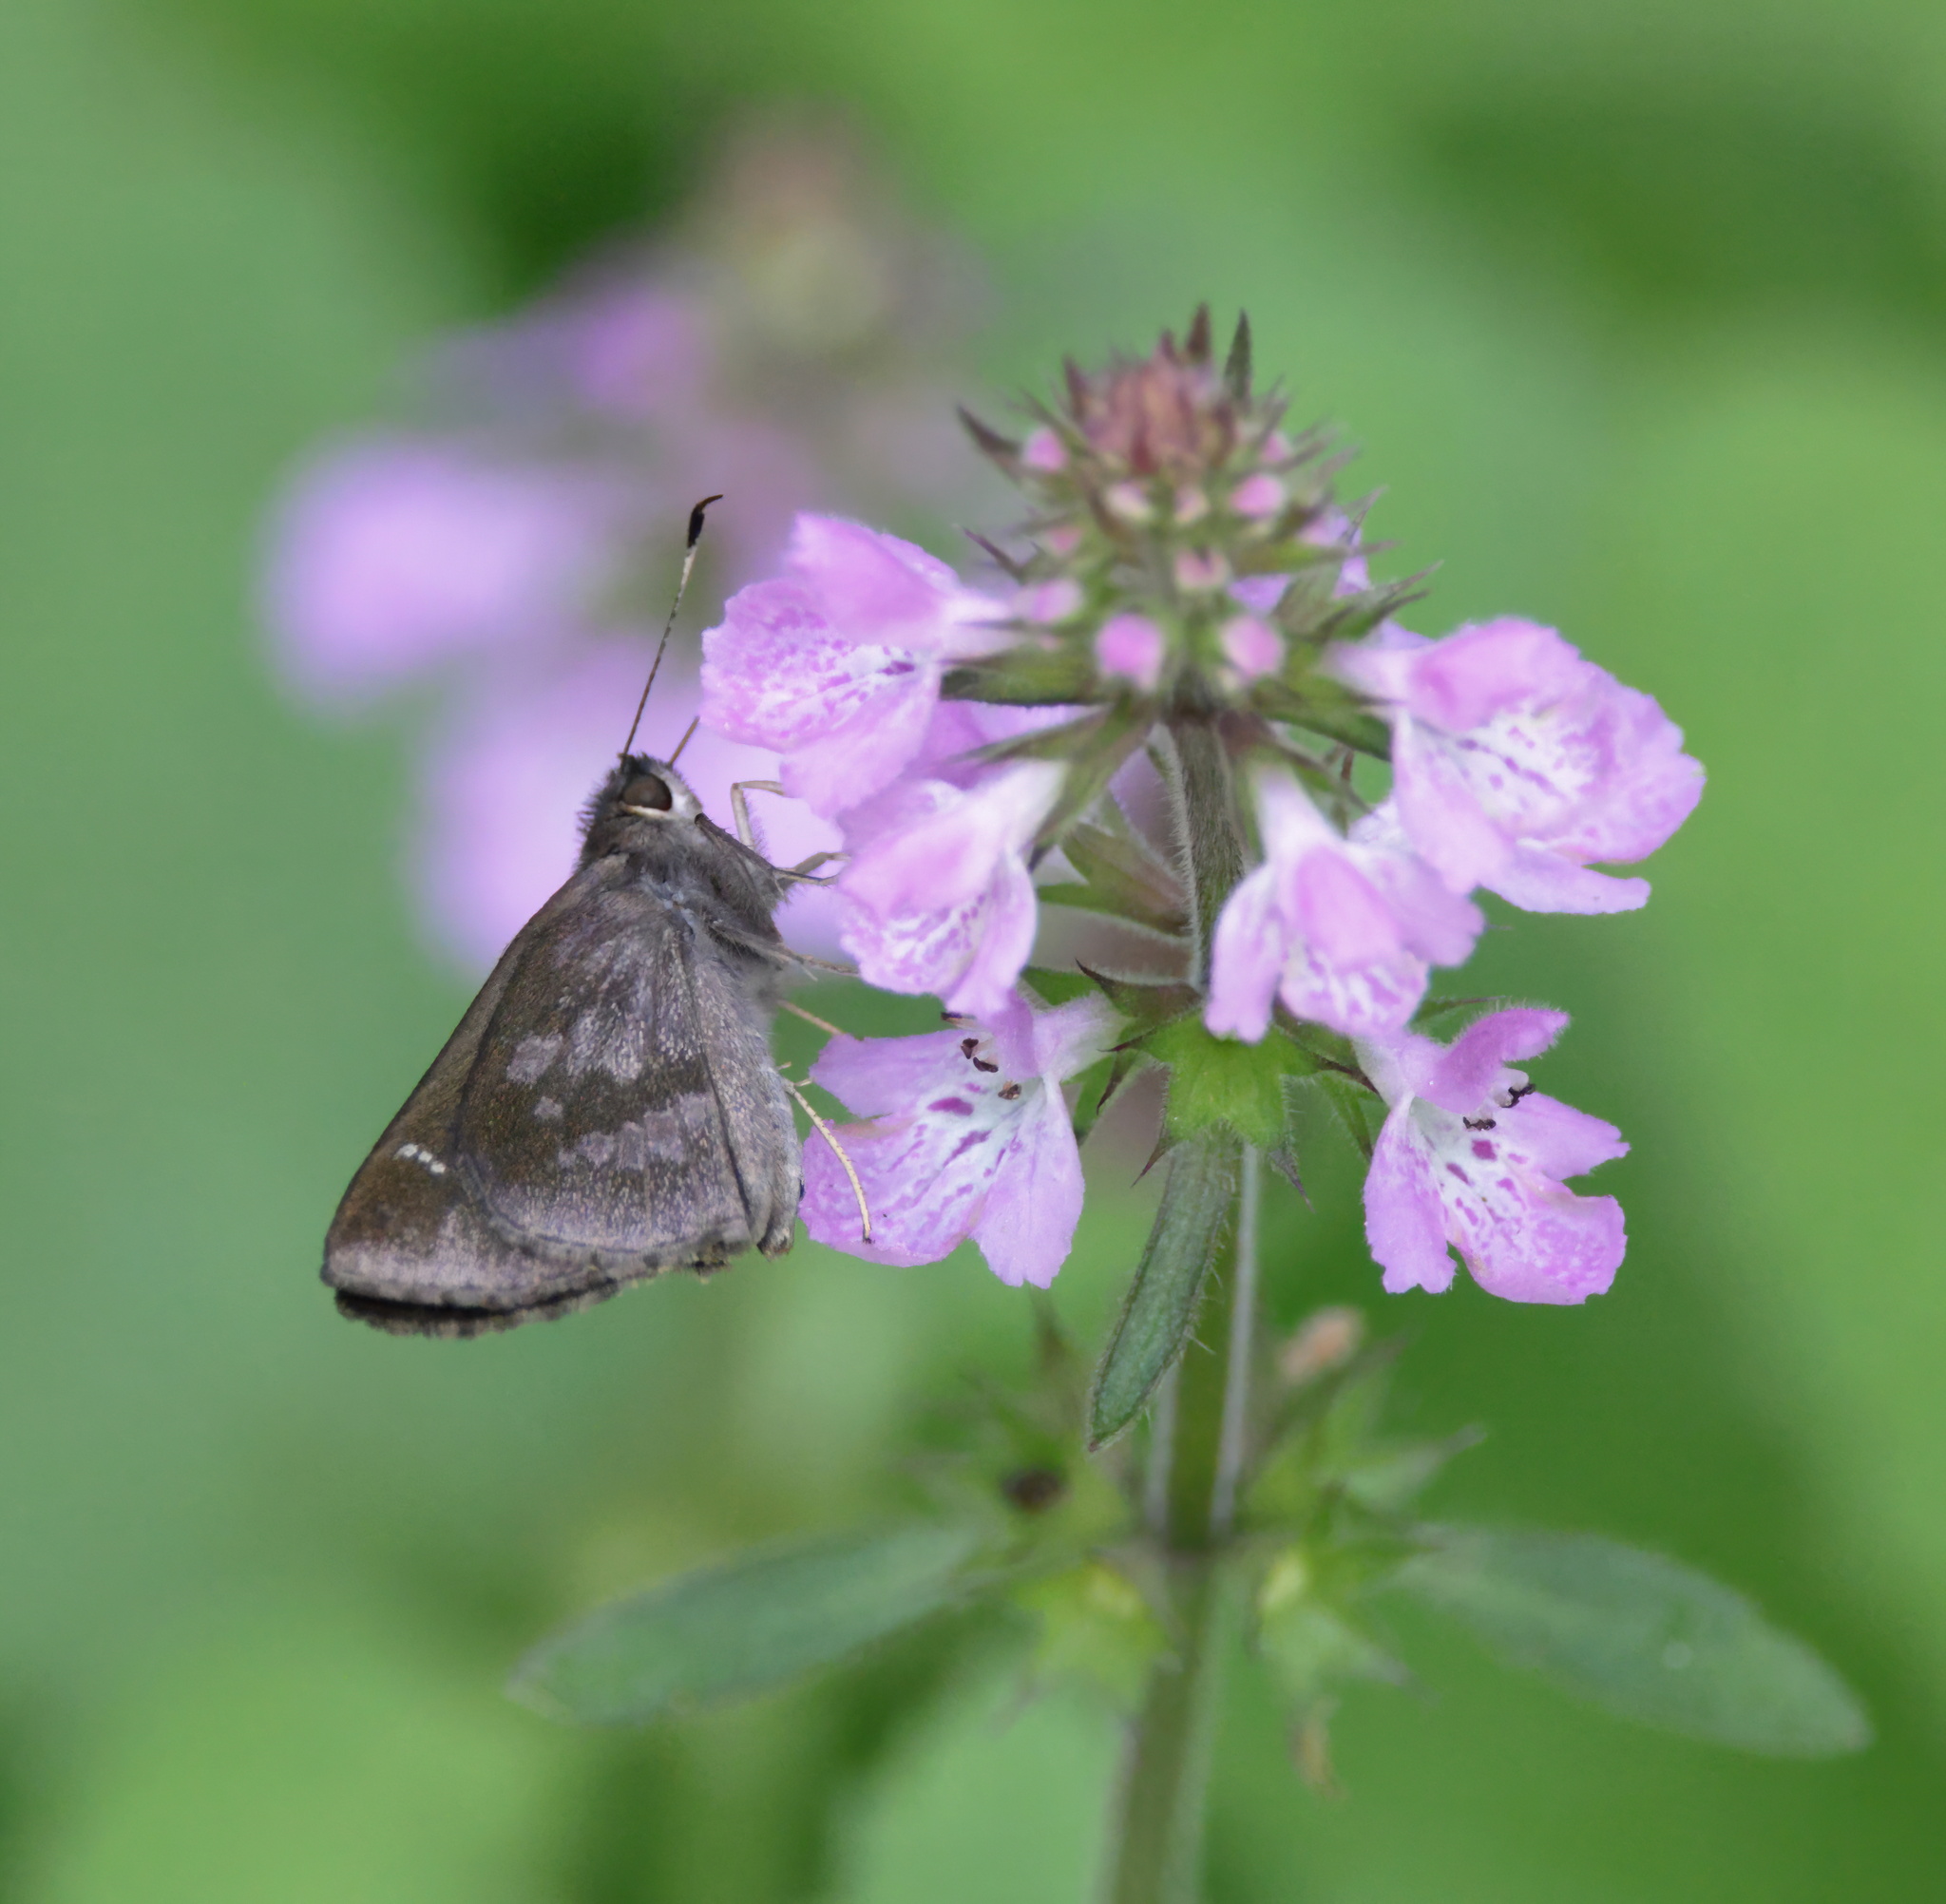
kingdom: Animalia
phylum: Arthropoda
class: Insecta
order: Lepidoptera
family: Hesperiidae
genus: Cymaenes
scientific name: Cymaenes
